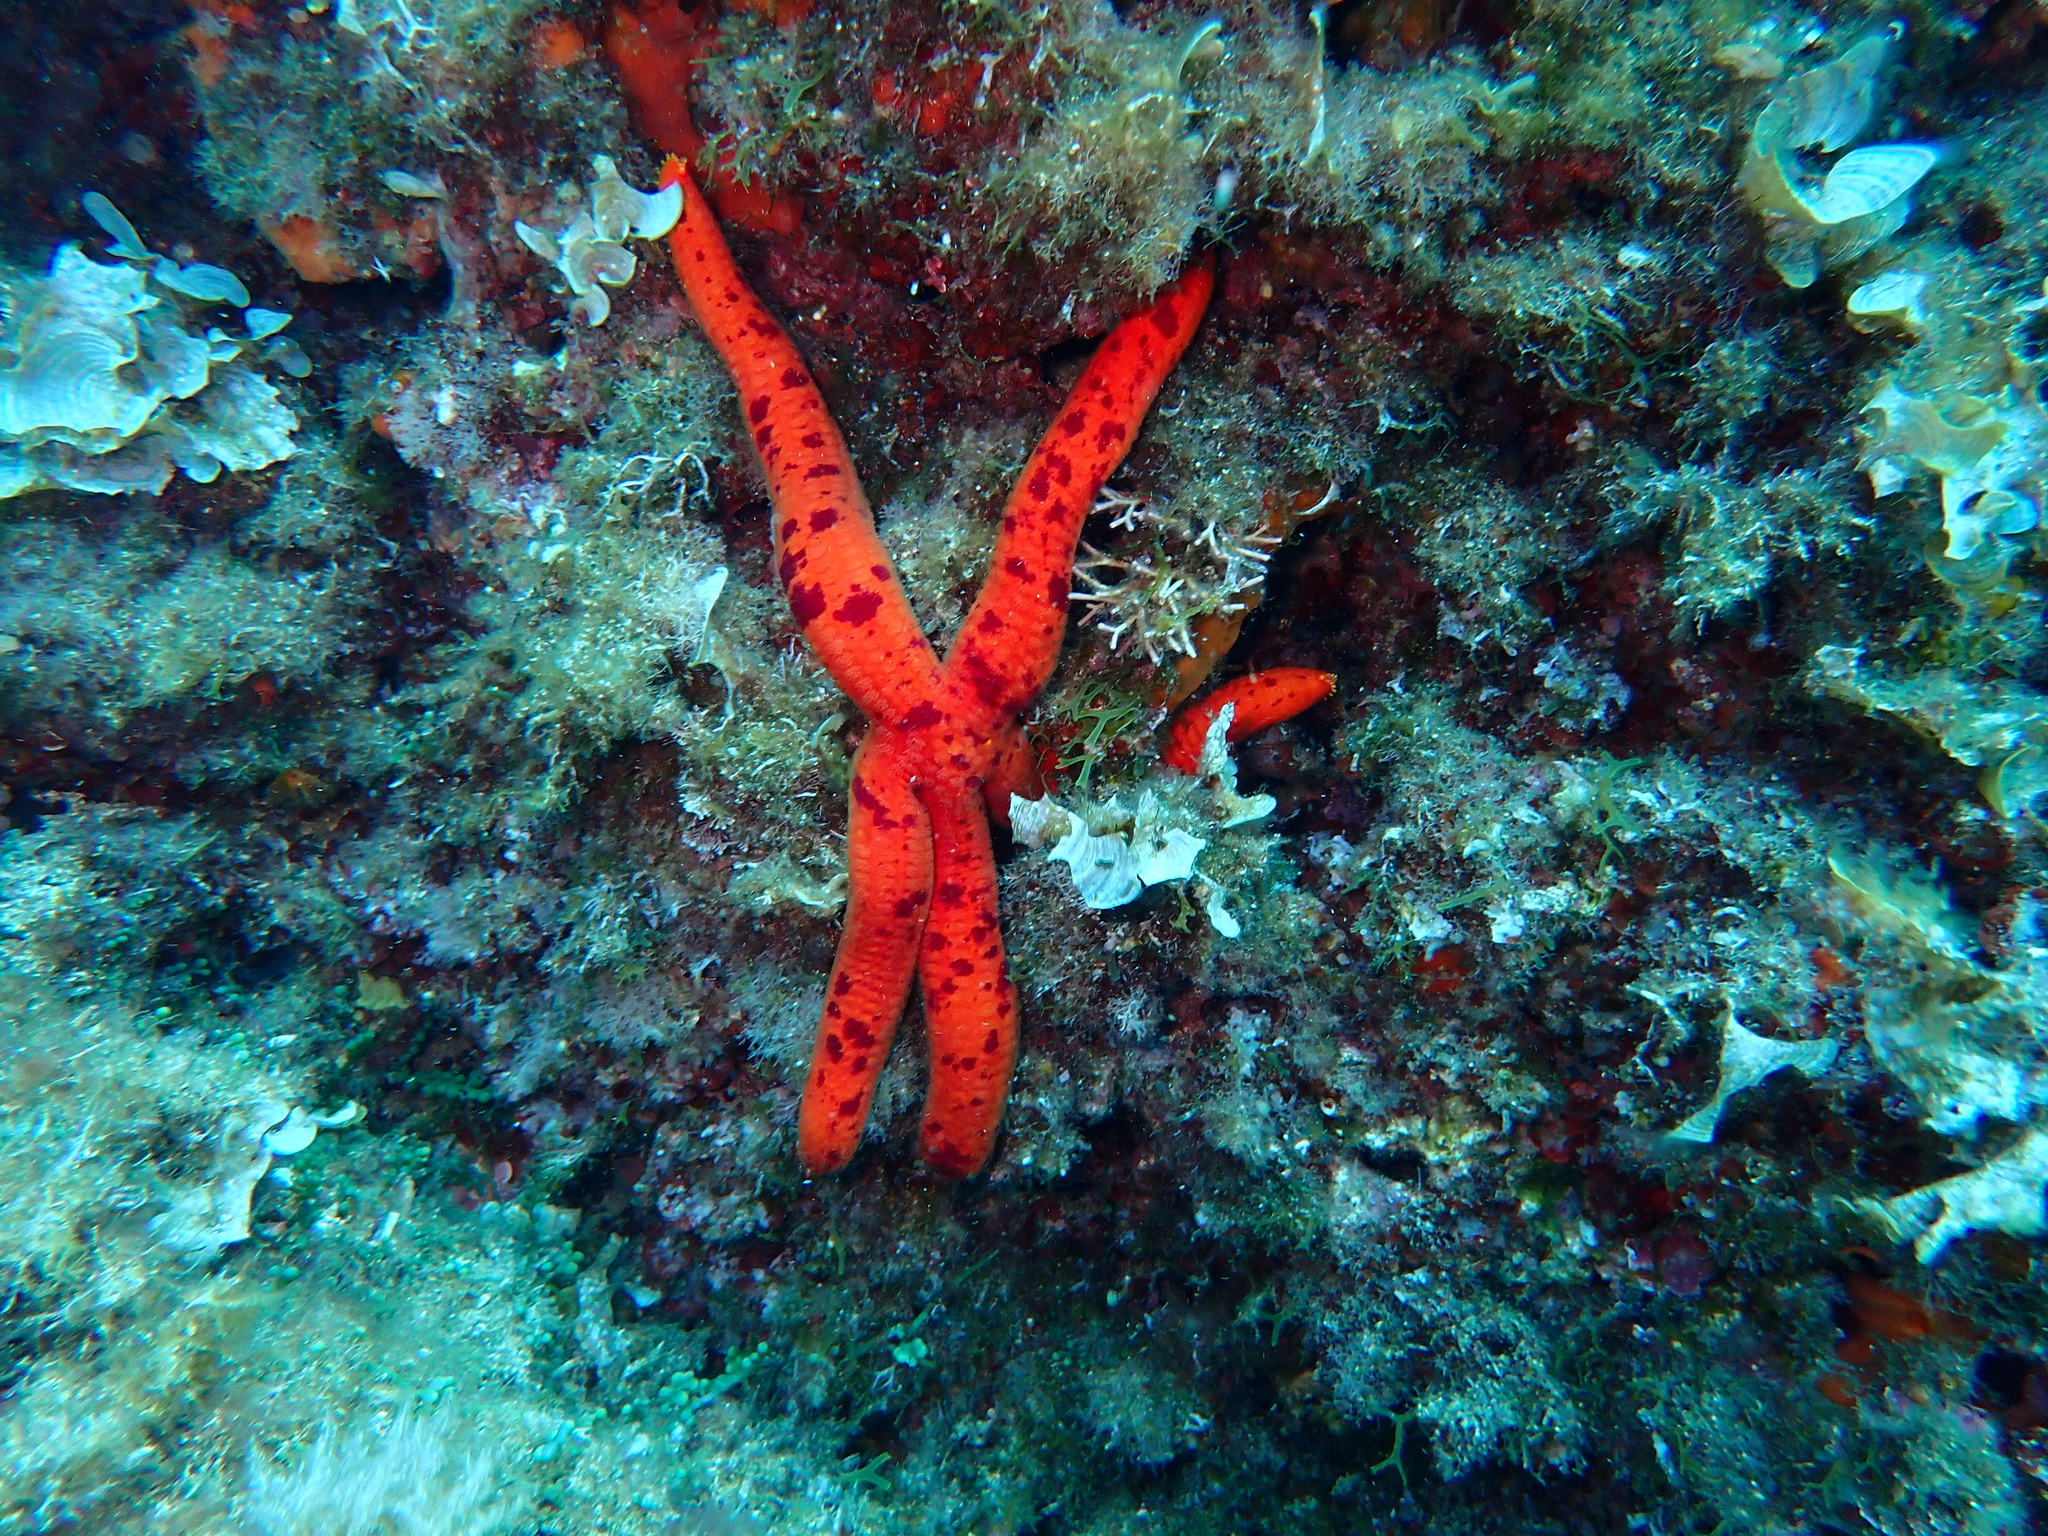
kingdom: Animalia
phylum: Echinodermata
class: Asteroidea
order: Valvatida
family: Ophidiasteridae
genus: Ophidiaster
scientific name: Ophidiaster ophidianus
